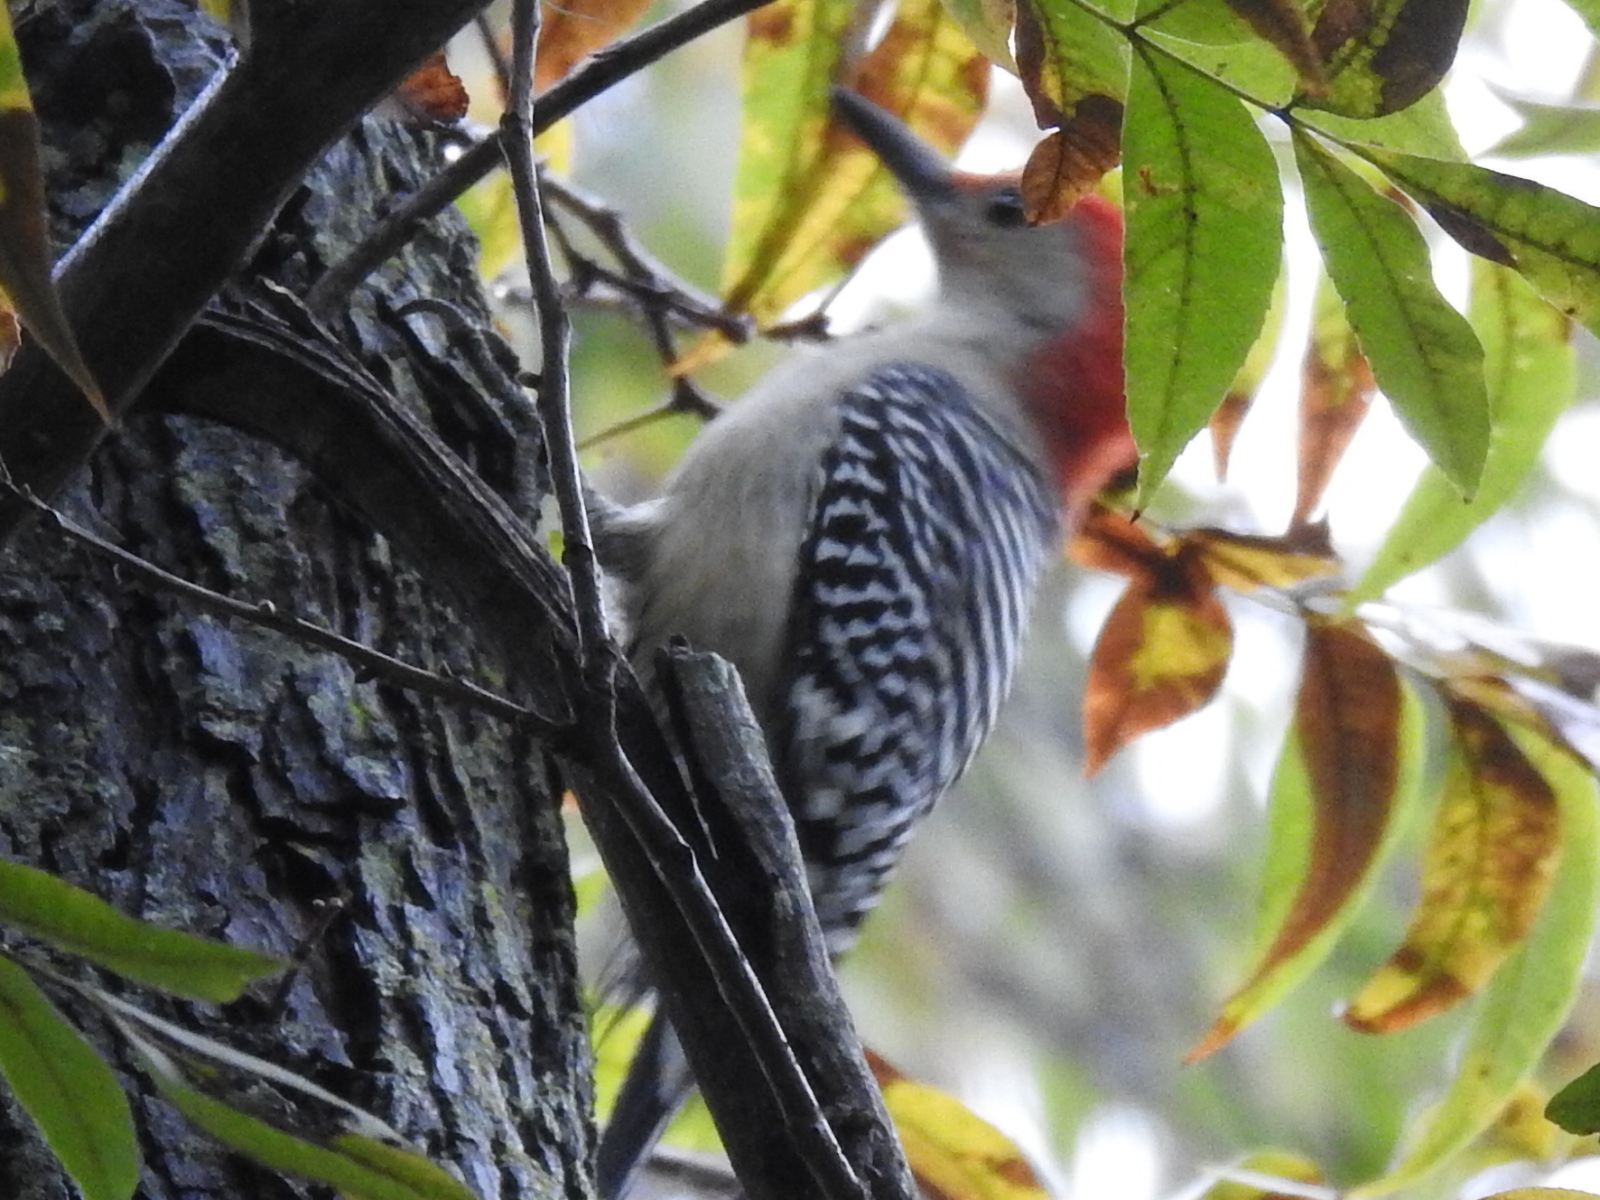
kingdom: Animalia
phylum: Chordata
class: Aves
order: Piciformes
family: Picidae
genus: Melanerpes
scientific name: Melanerpes carolinus
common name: Red-bellied woodpecker
